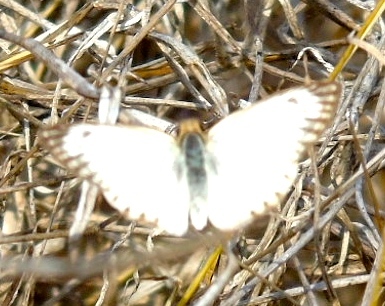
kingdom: Animalia
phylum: Arthropoda
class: Insecta
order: Lepidoptera
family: Hesperiidae
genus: Heliopetes
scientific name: Heliopetes arsalte
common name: Veined white-skipper
